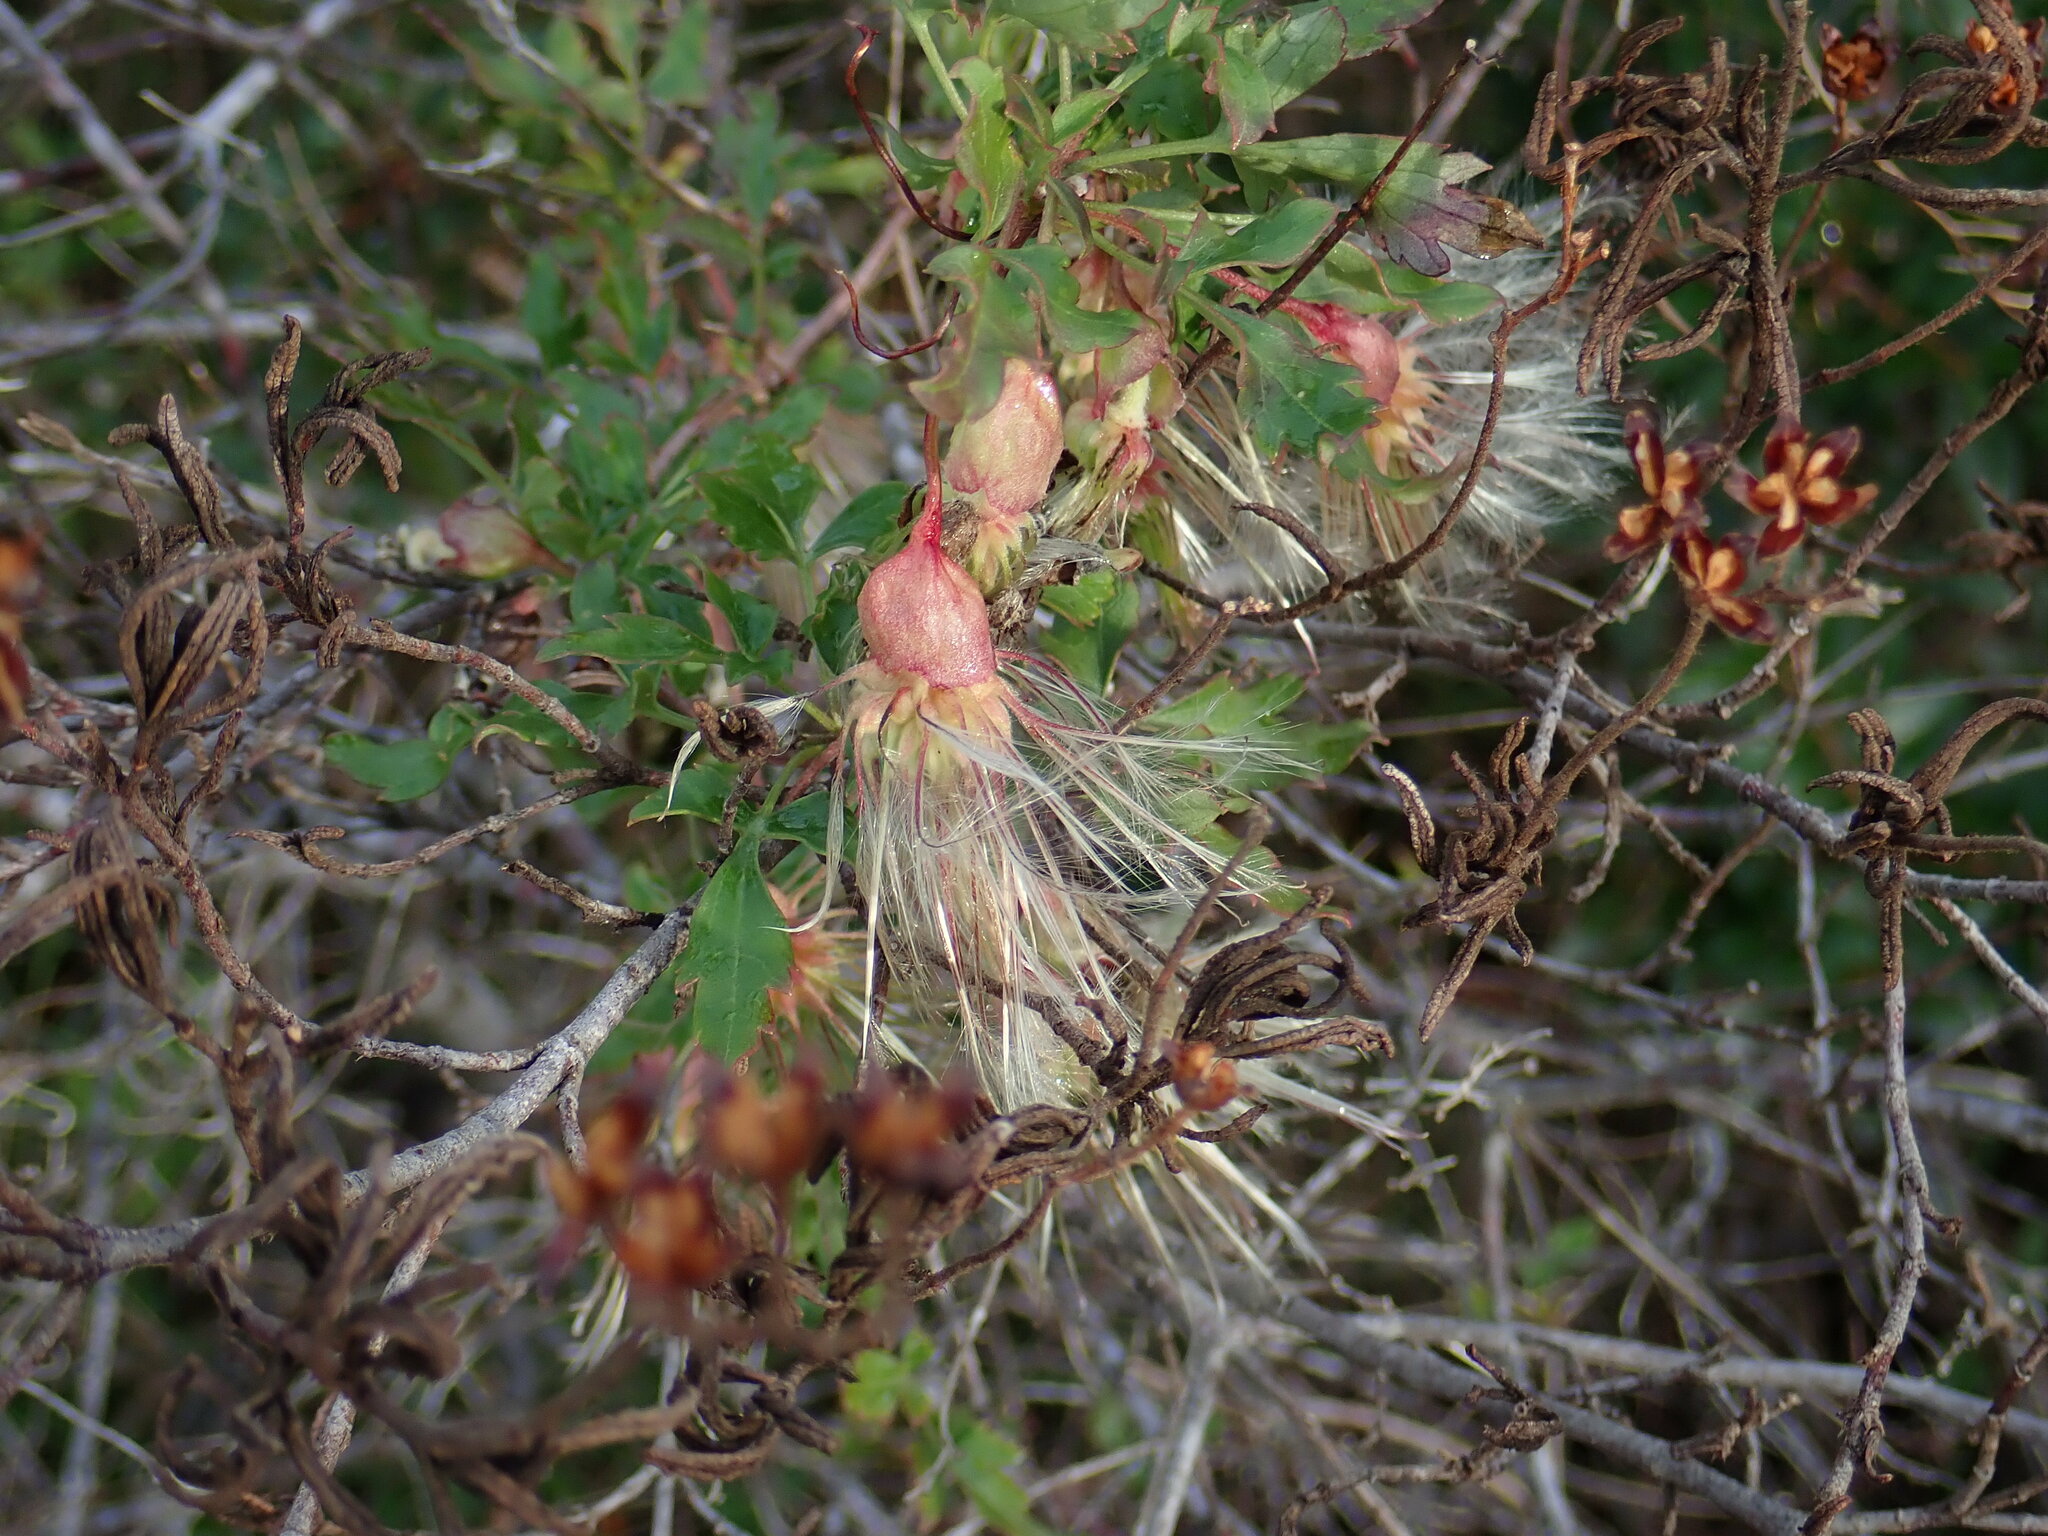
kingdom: Plantae
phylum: Tracheophyta
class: Magnoliopsida
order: Ranunculales
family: Ranunculaceae
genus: Clematis
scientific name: Clematis cirrhosa
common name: Early virgin's-bower
